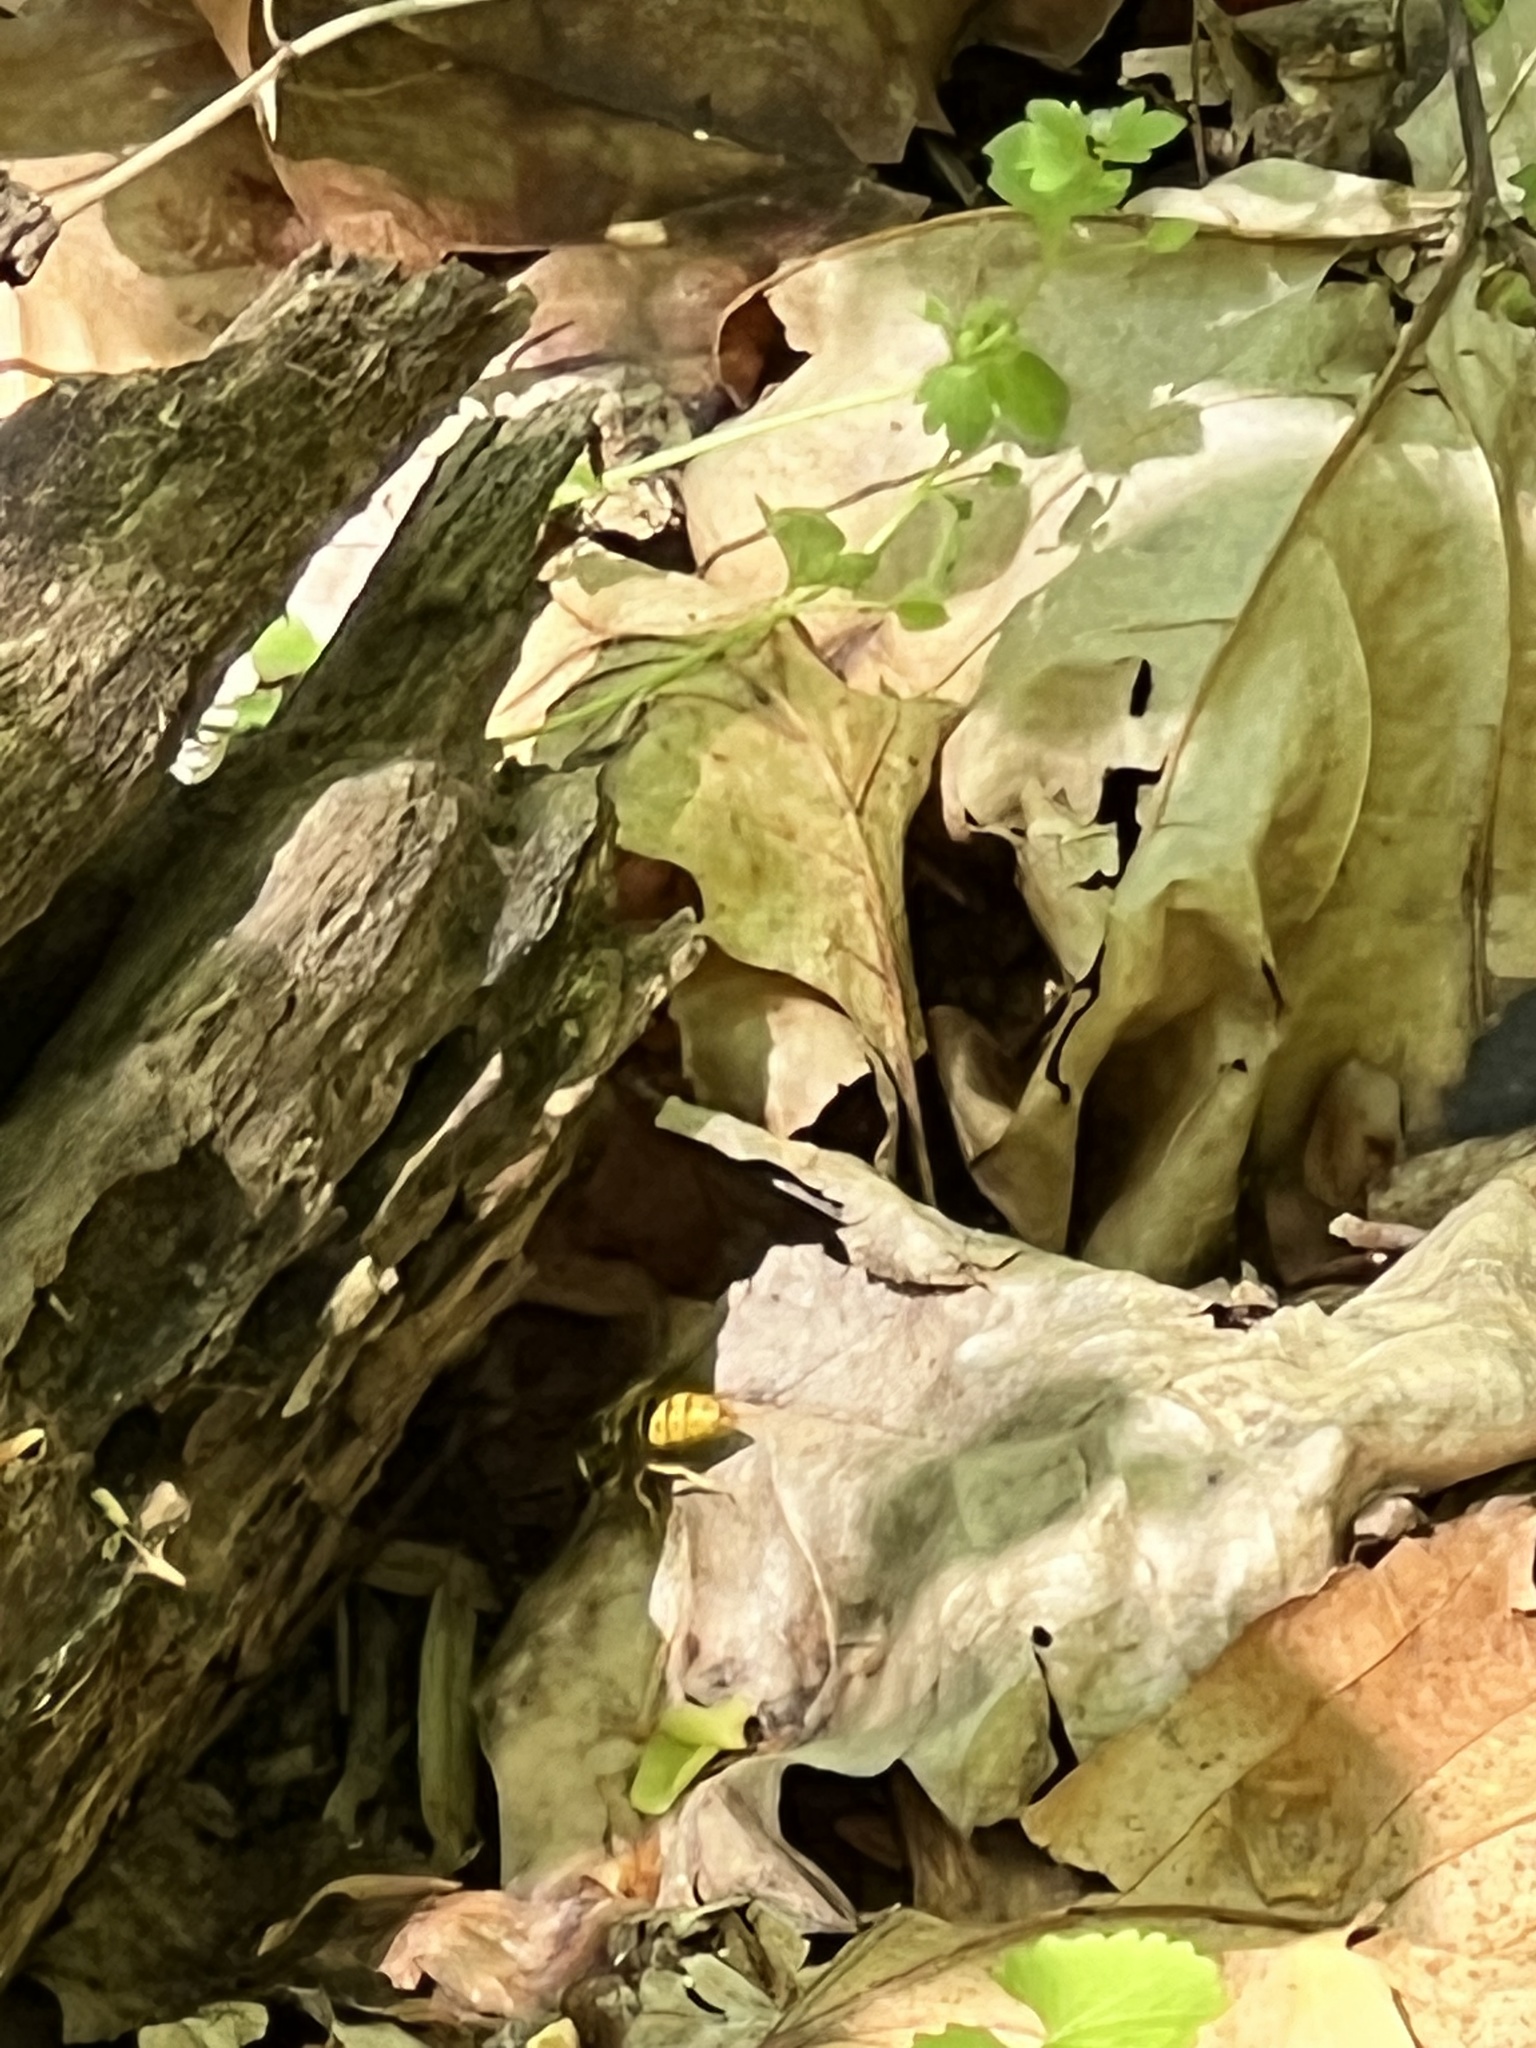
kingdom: Animalia
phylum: Arthropoda
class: Insecta
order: Hymenoptera
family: Vespidae
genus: Vespula
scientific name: Vespula maculifrons
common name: Eastern yellowjacket
